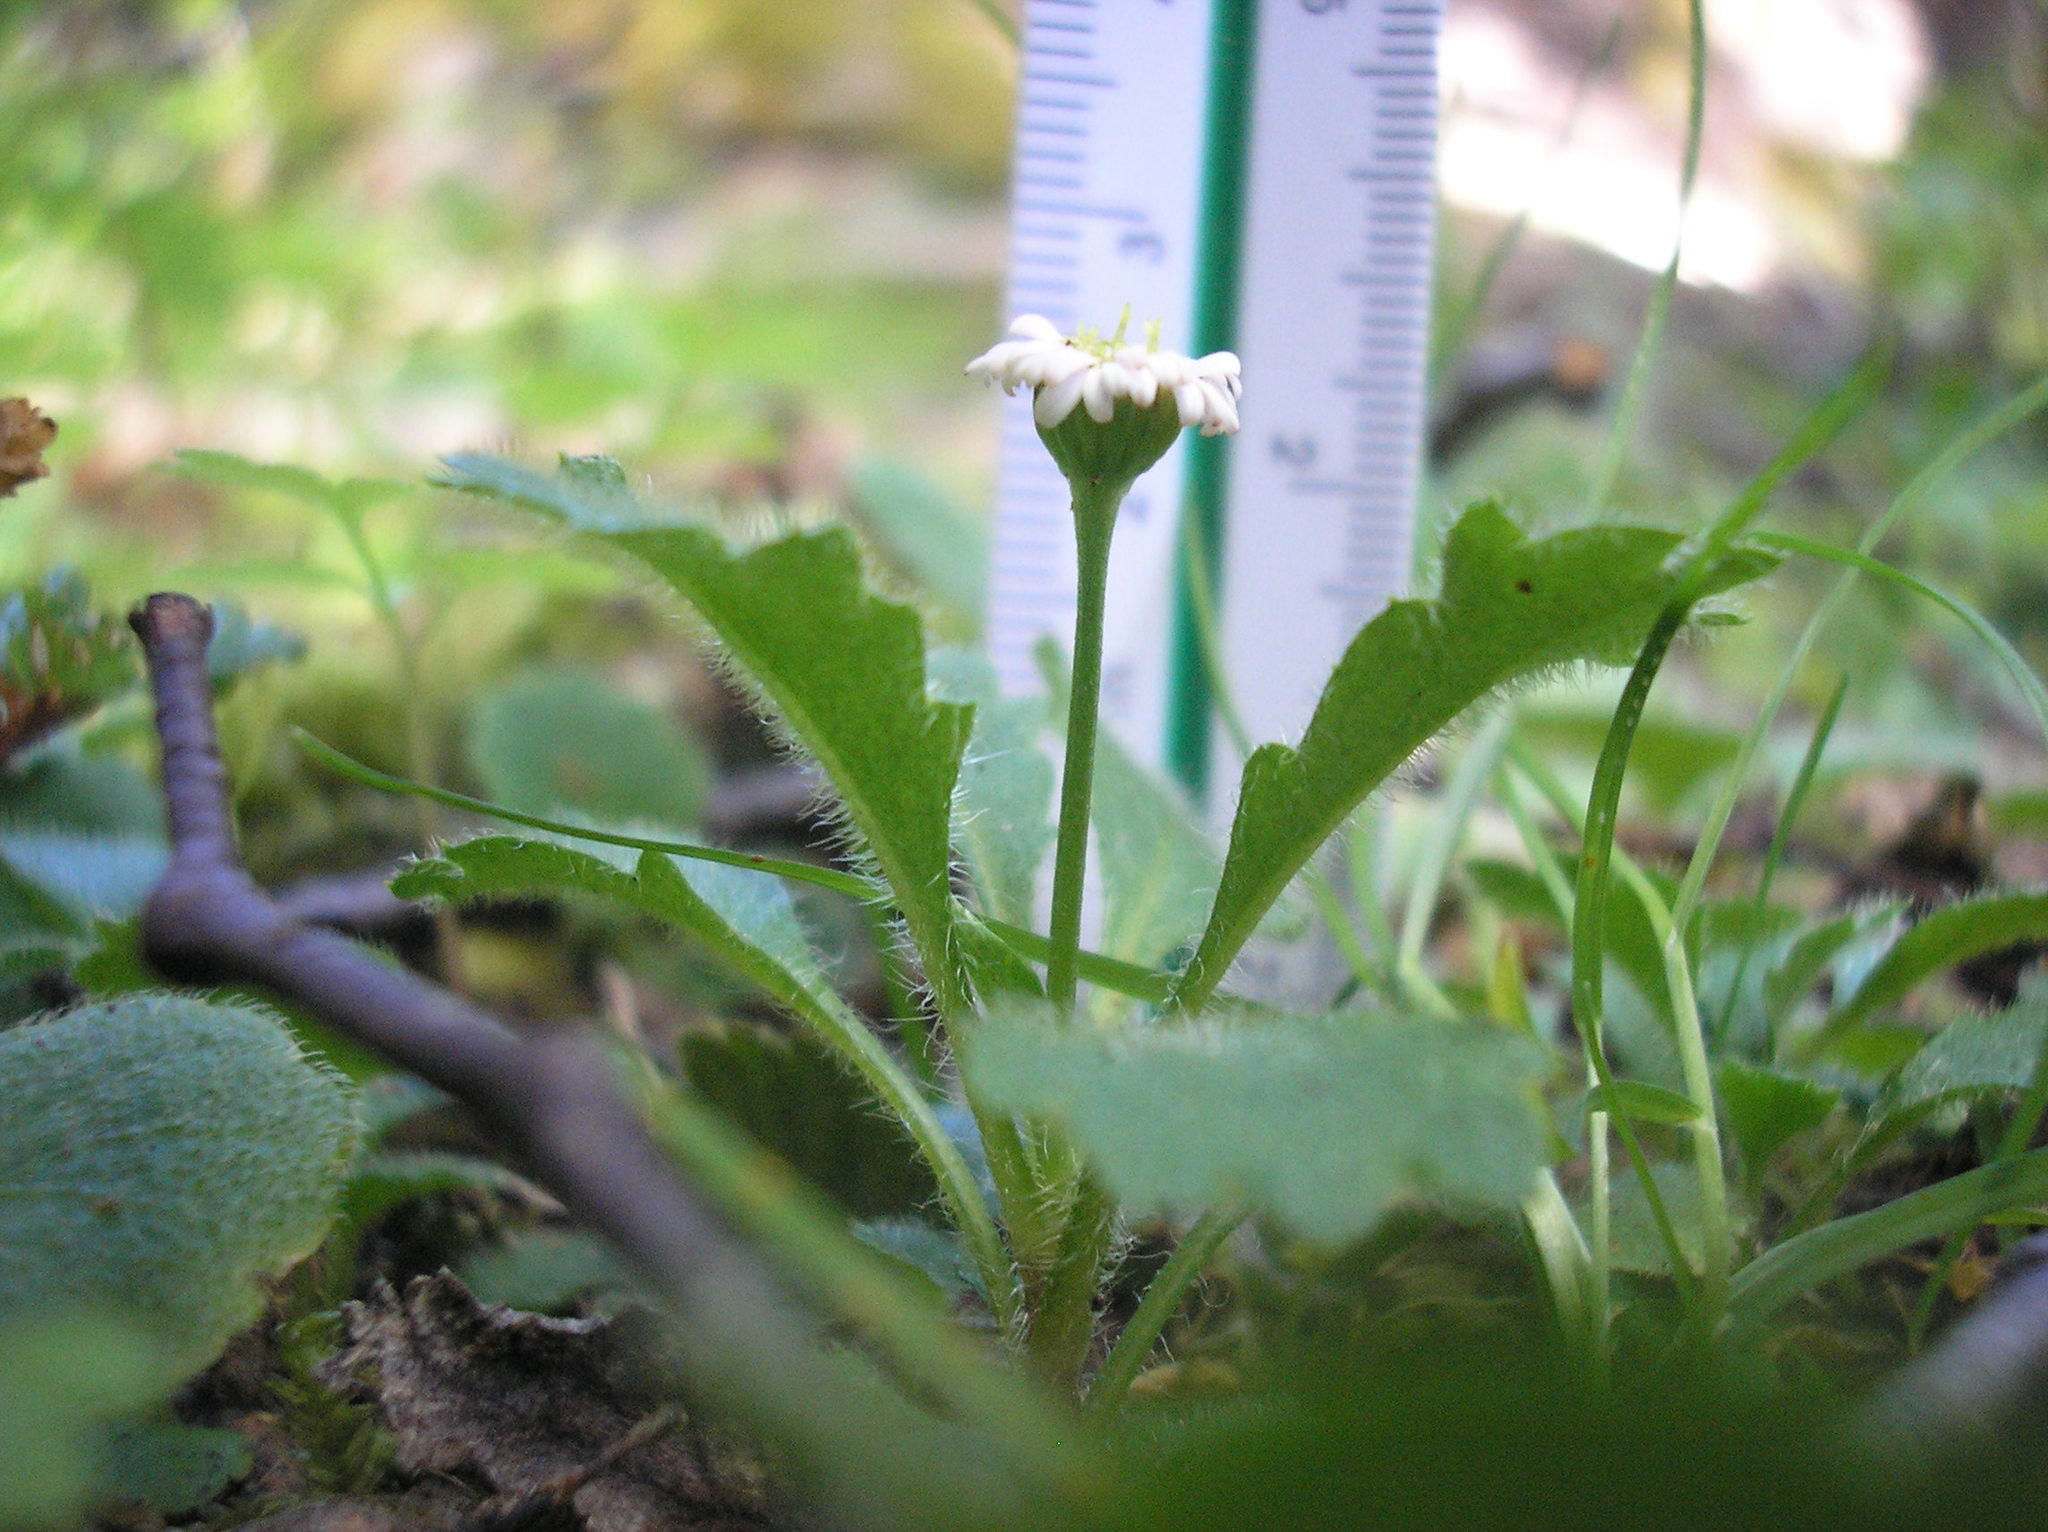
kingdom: Plantae
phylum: Tracheophyta
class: Magnoliopsida
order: Asterales
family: Asteraceae
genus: Lagenophora
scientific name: Lagenophora hariotii
